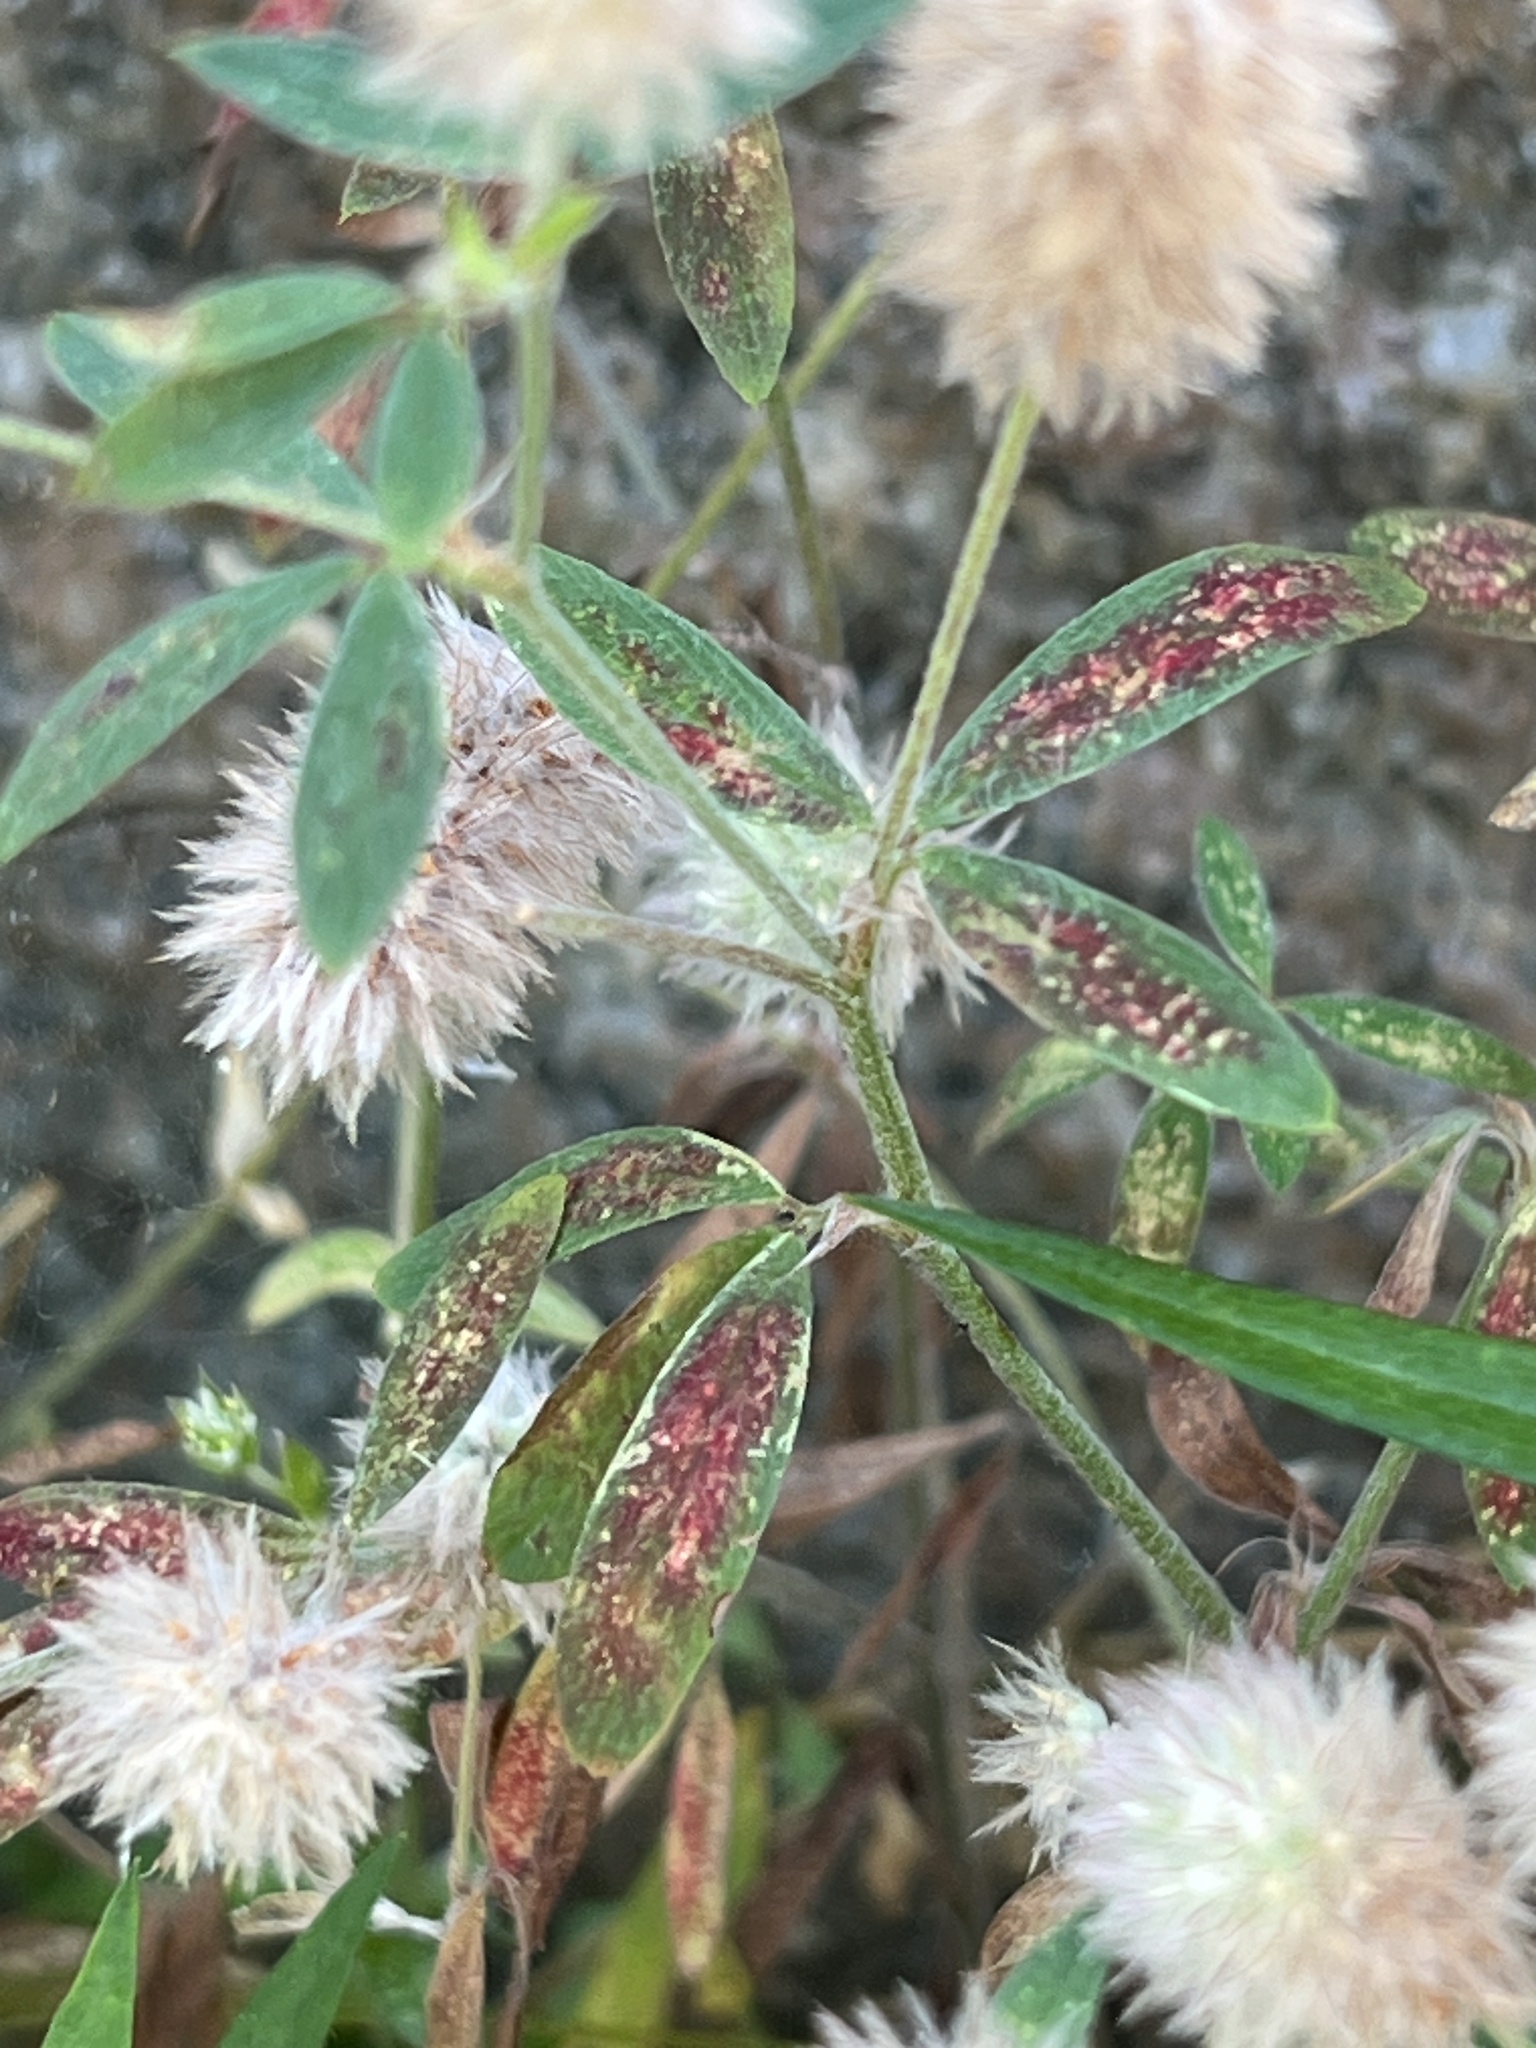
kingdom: Plantae
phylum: Tracheophyta
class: Magnoliopsida
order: Fabales
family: Fabaceae
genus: Trifolium
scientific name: Trifolium arvense
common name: Hare's-foot clover
